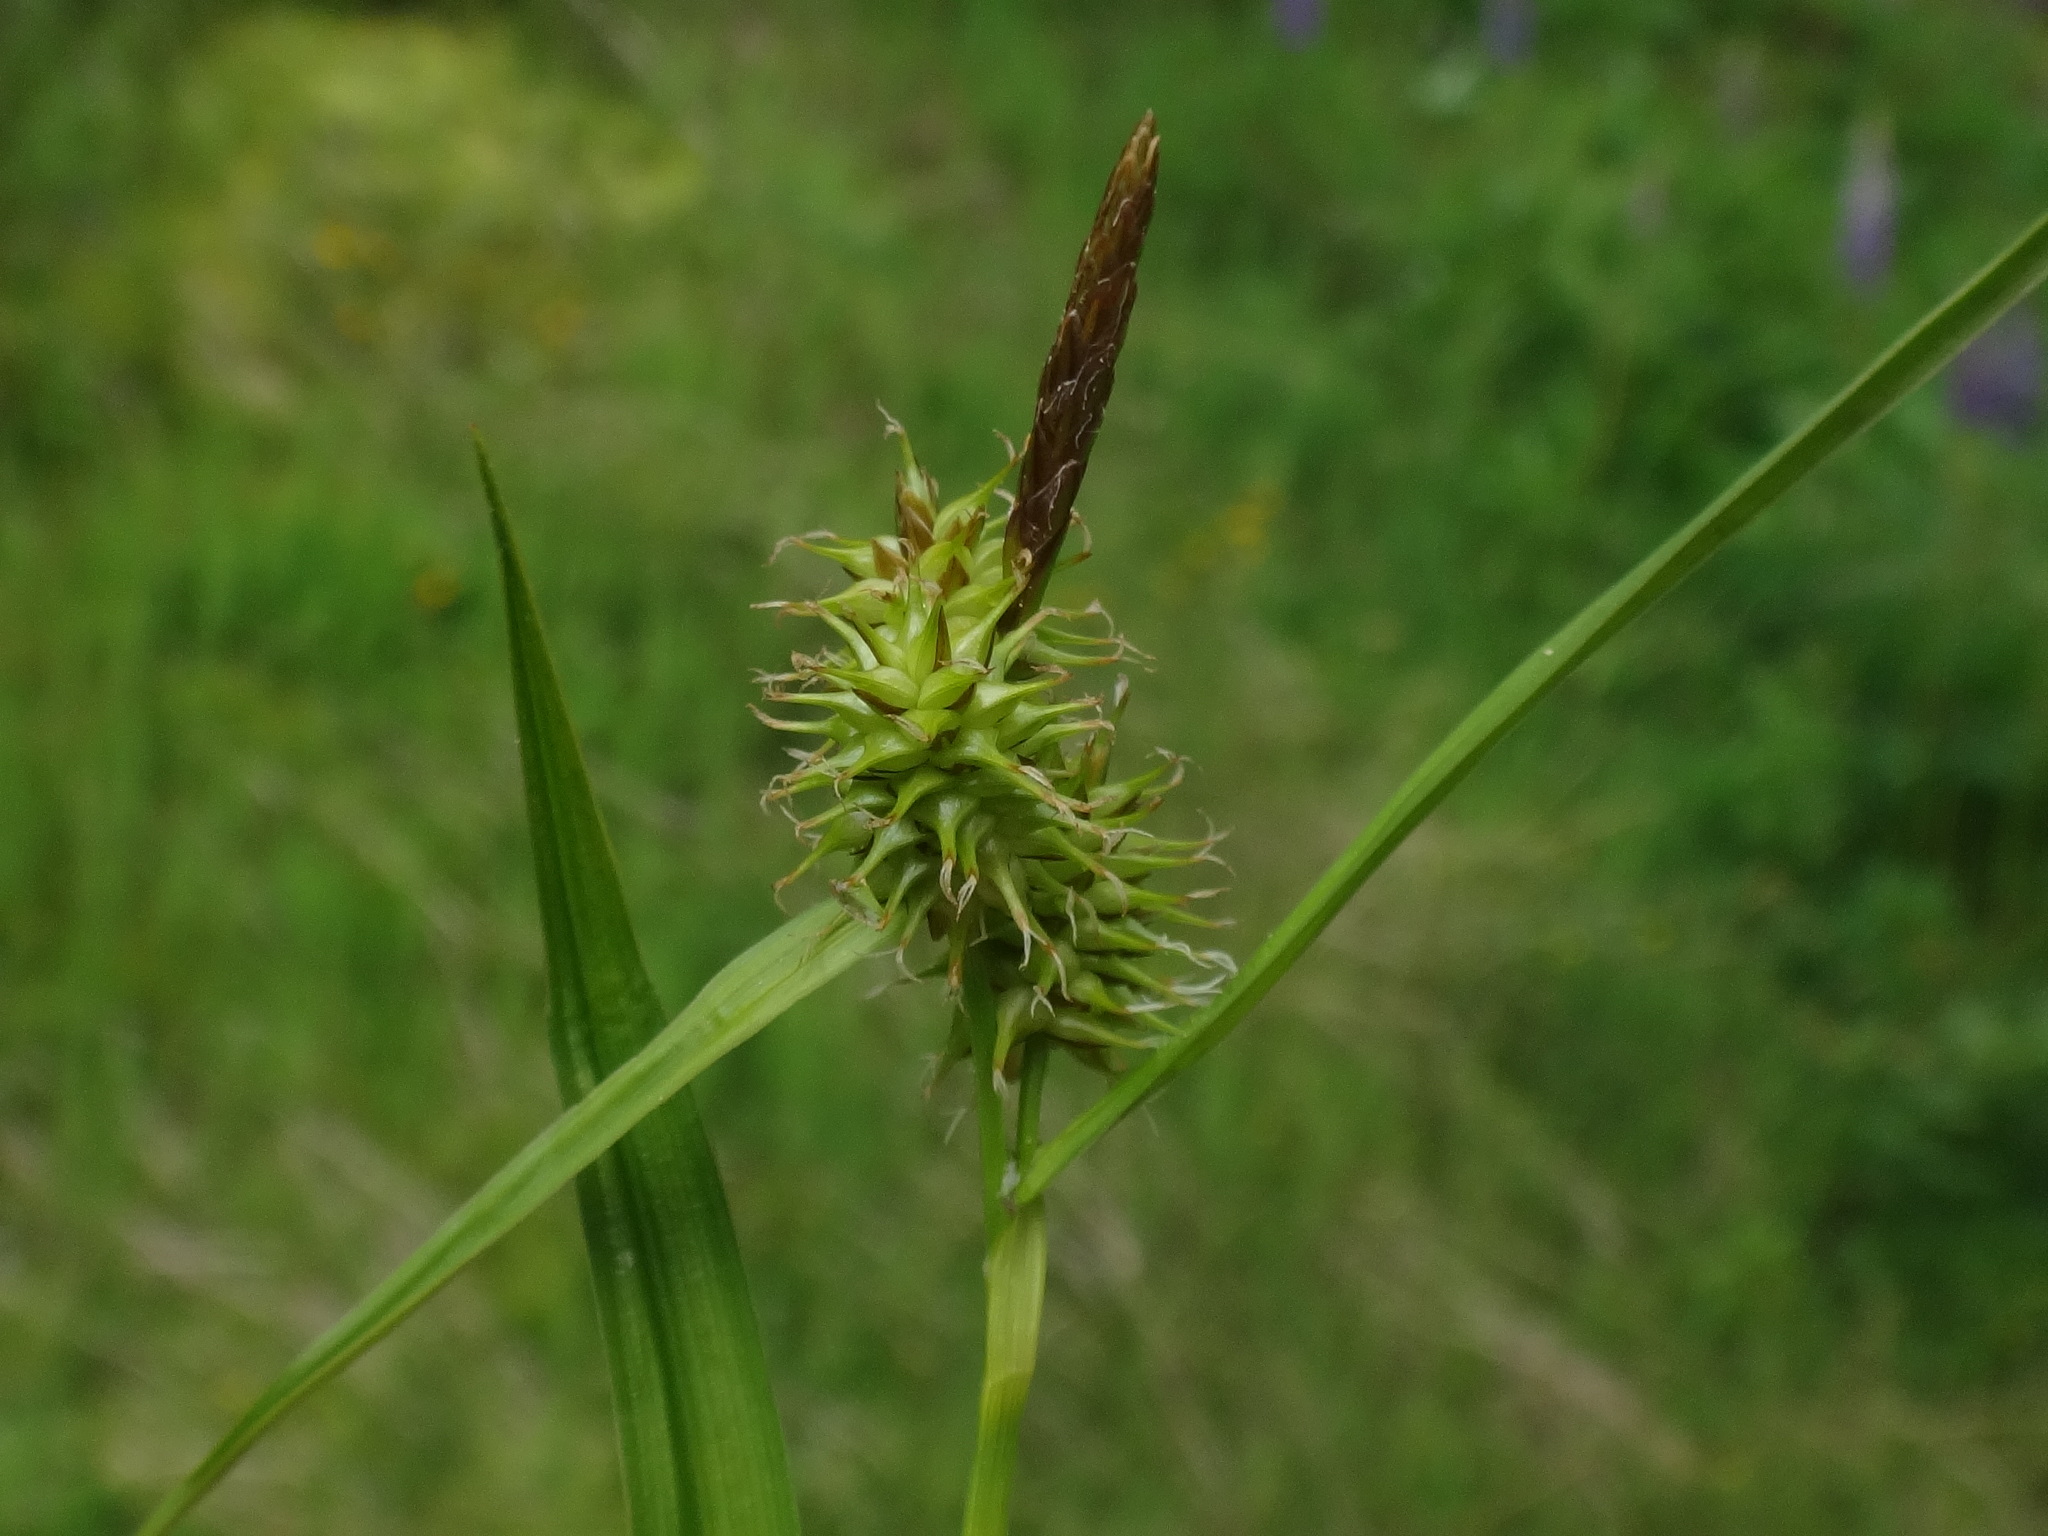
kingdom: Plantae
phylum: Tracheophyta
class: Liliopsida
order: Poales
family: Cyperaceae
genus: Carex
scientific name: Carex flava
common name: Large yellow-sedge
